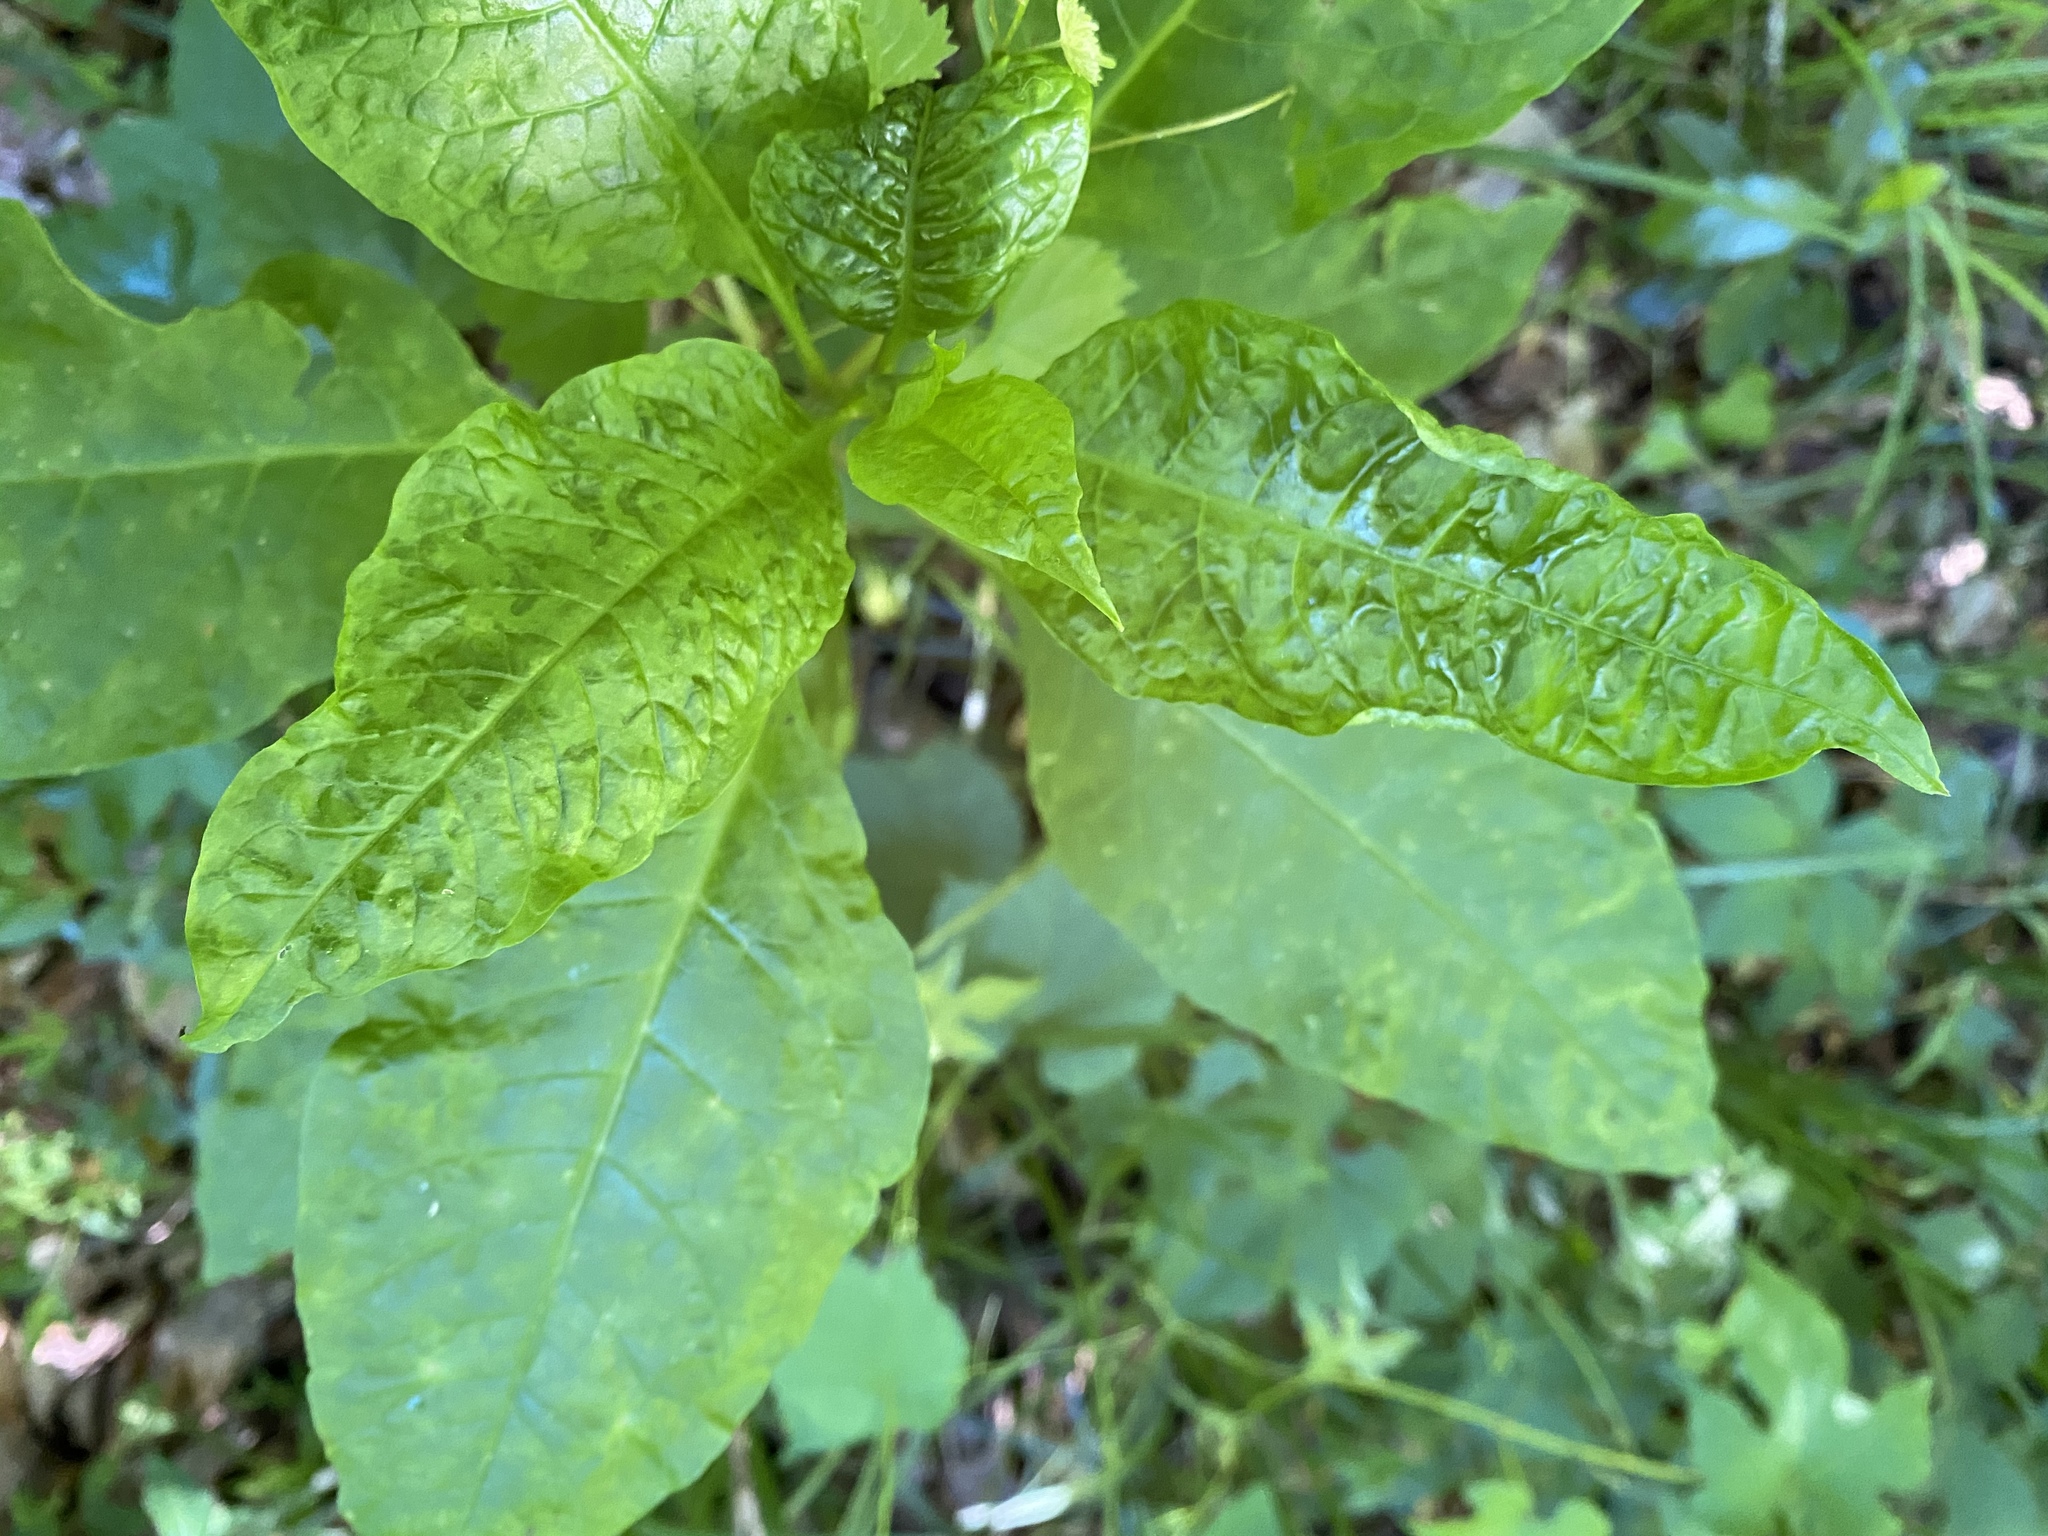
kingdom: Viruses
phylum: Pisuviricota
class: Stelpaviricetes
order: Patatavirales
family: Potyviridae
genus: Potyvirus
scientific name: Potyvirus Pokeweed mosaic virus
